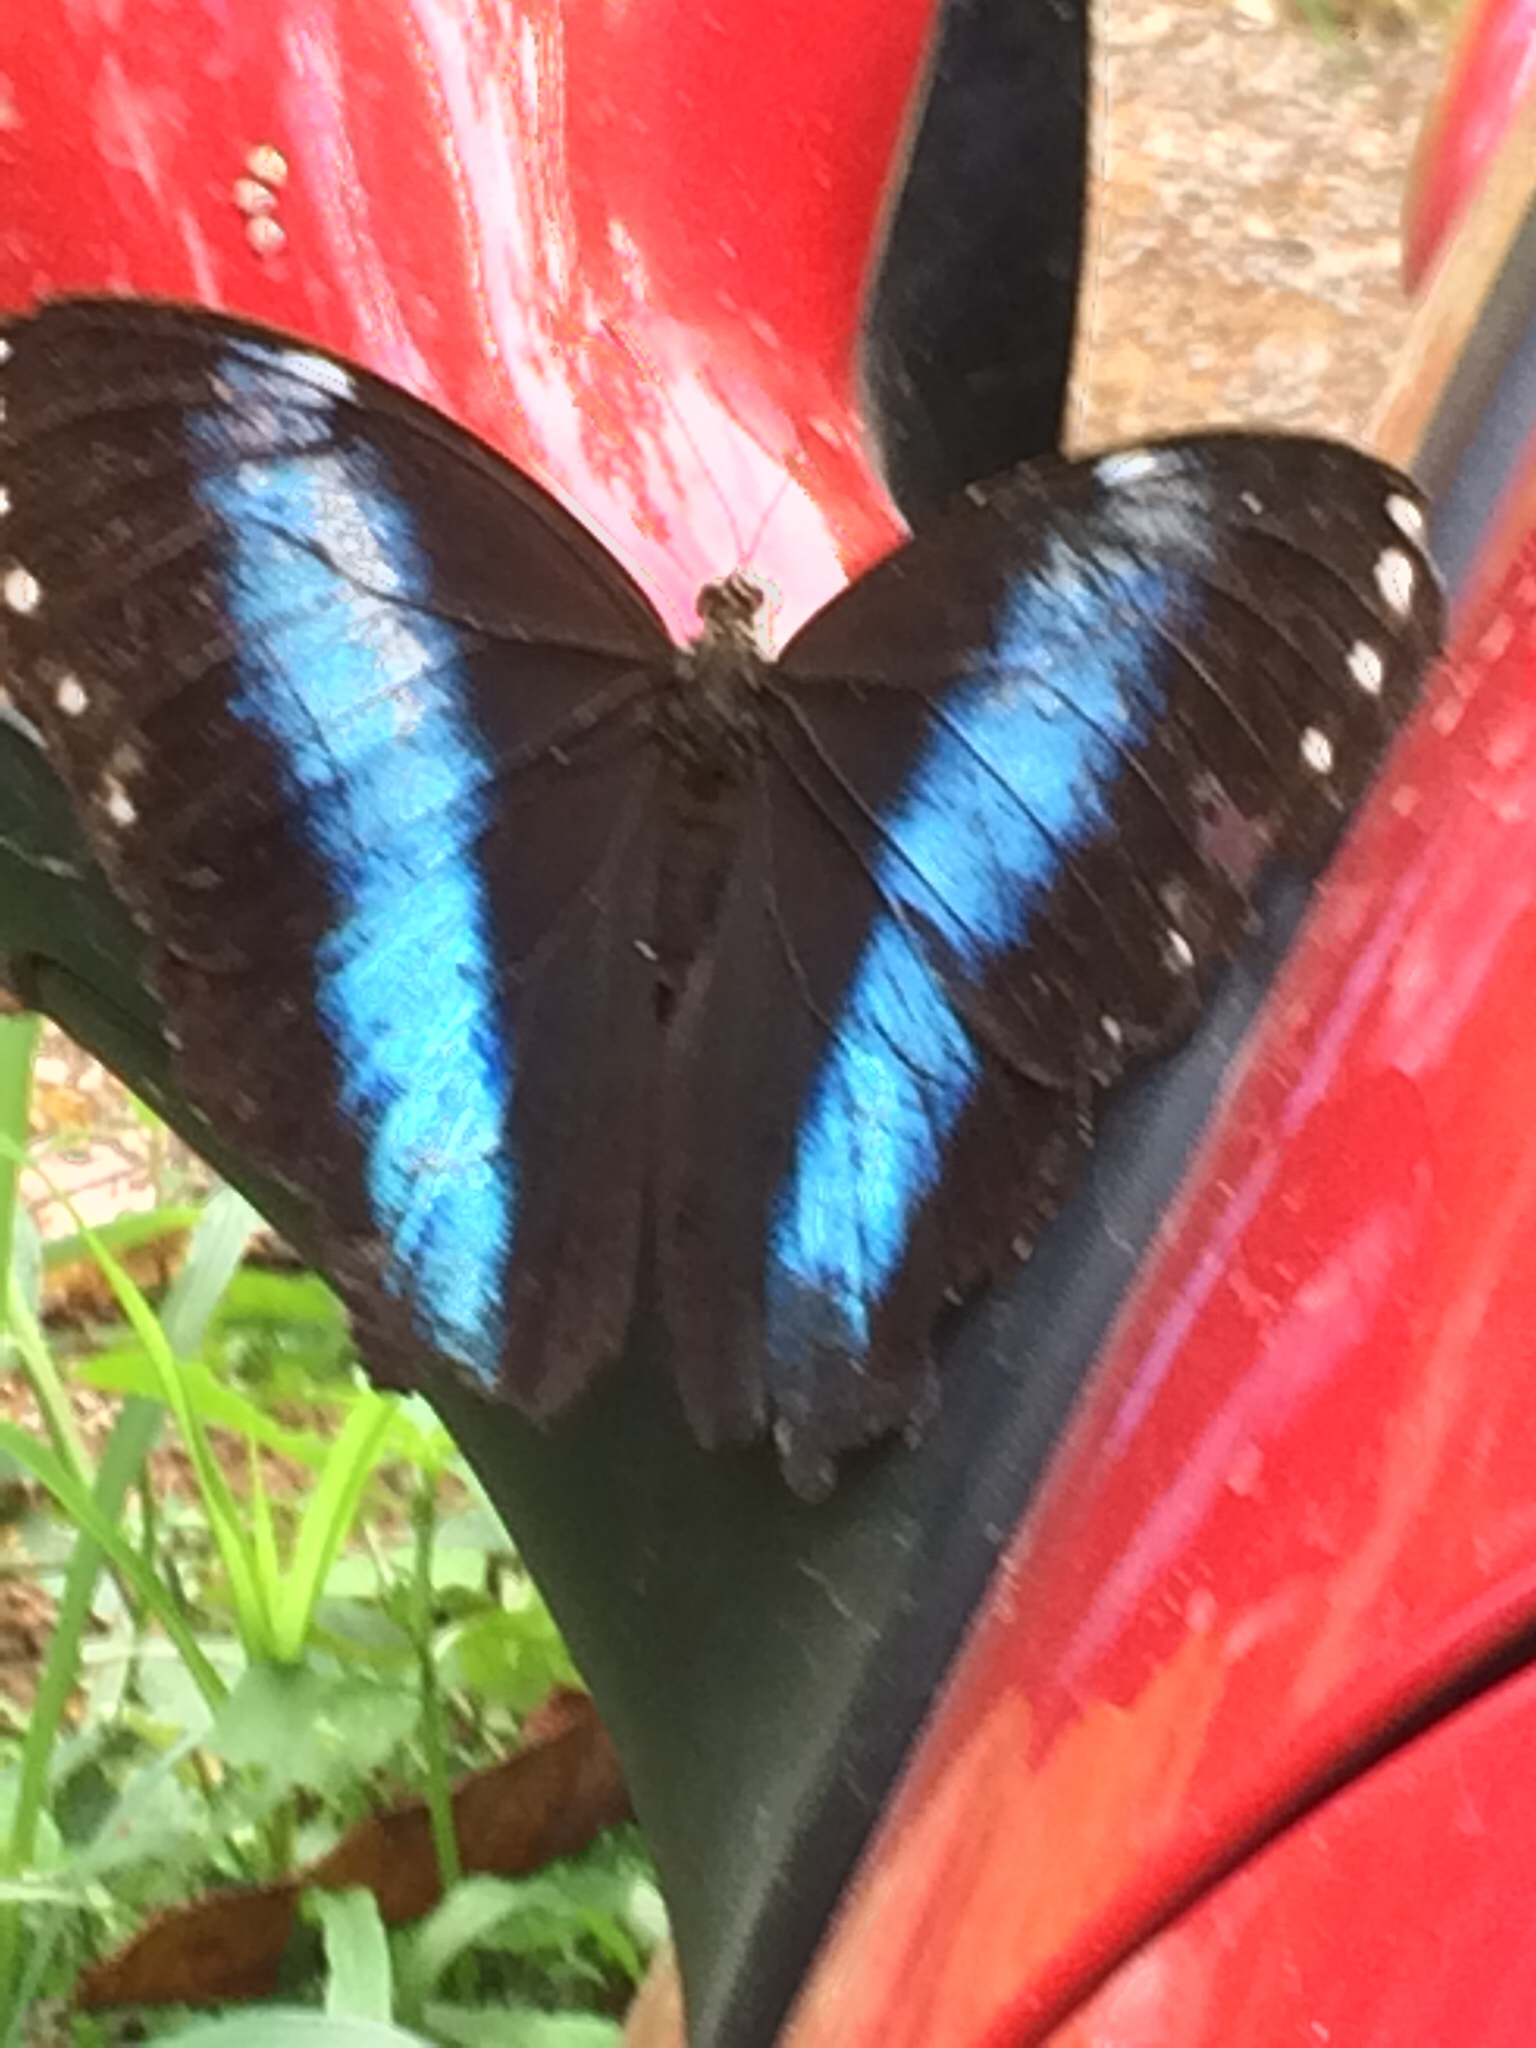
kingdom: Animalia
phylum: Arthropoda
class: Insecta
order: Lepidoptera
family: Nymphalidae
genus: Morpho
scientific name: Morpho helenor
